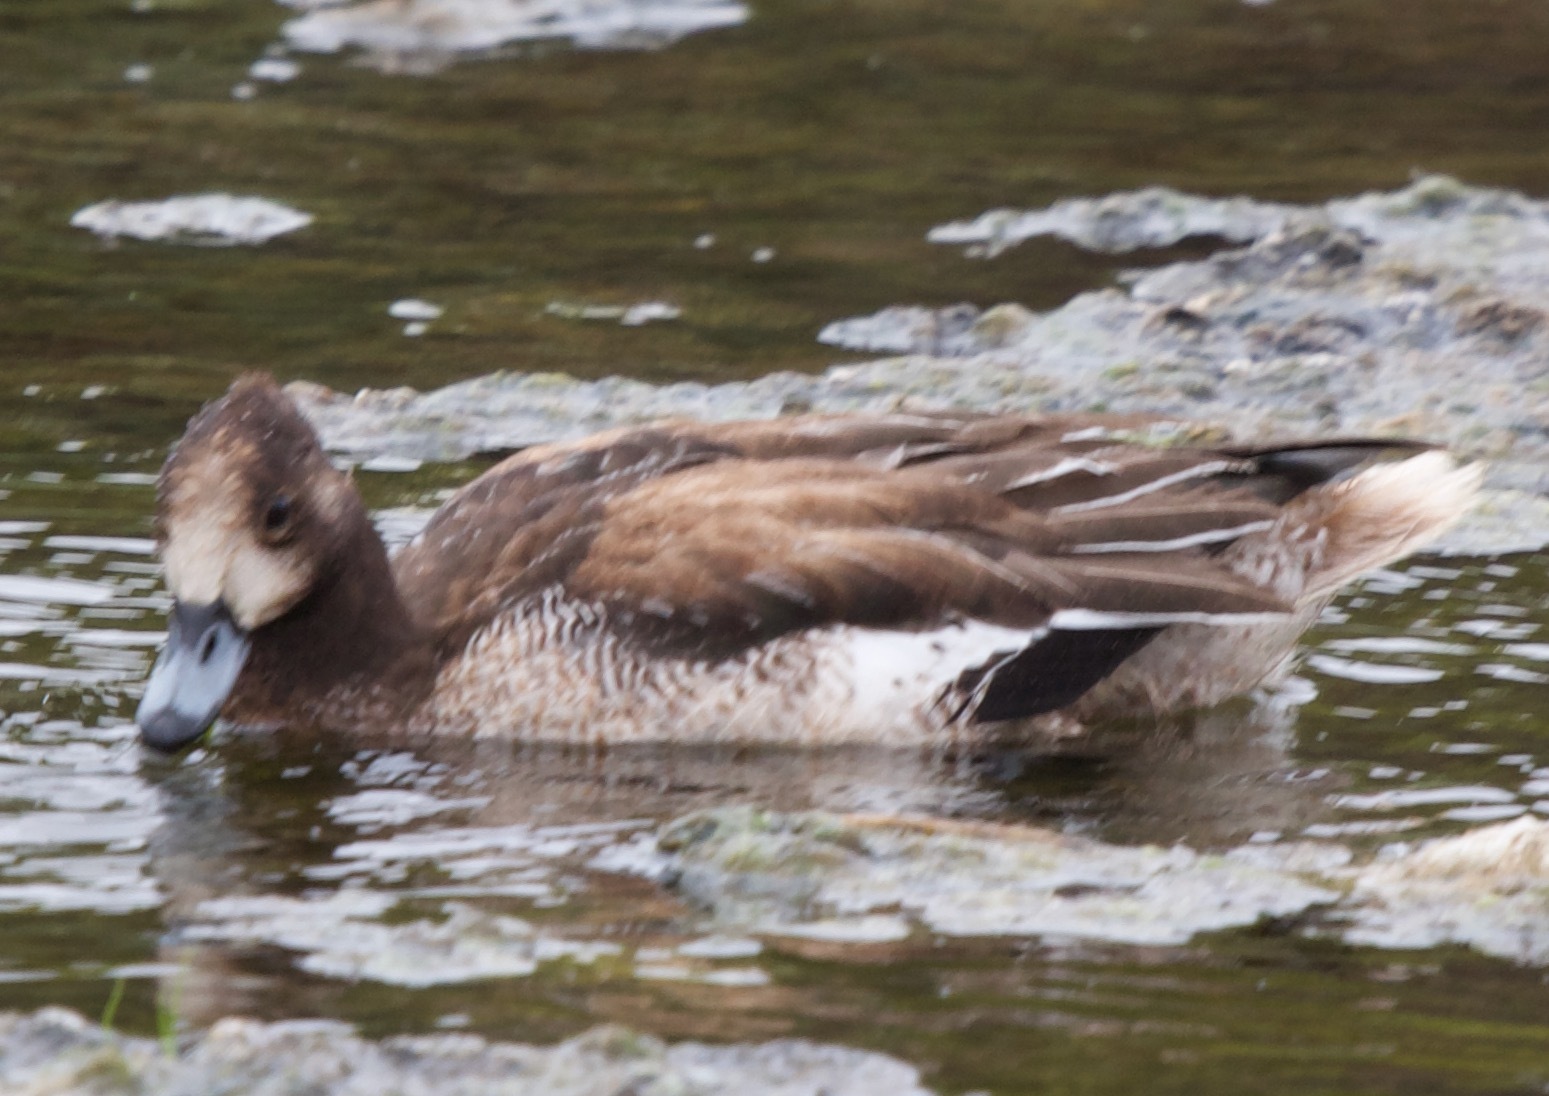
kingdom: Animalia
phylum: Chordata
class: Aves
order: Anseriformes
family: Anatidae
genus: Mareca
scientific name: Mareca sibilatrix
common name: Chiloe wigeon
